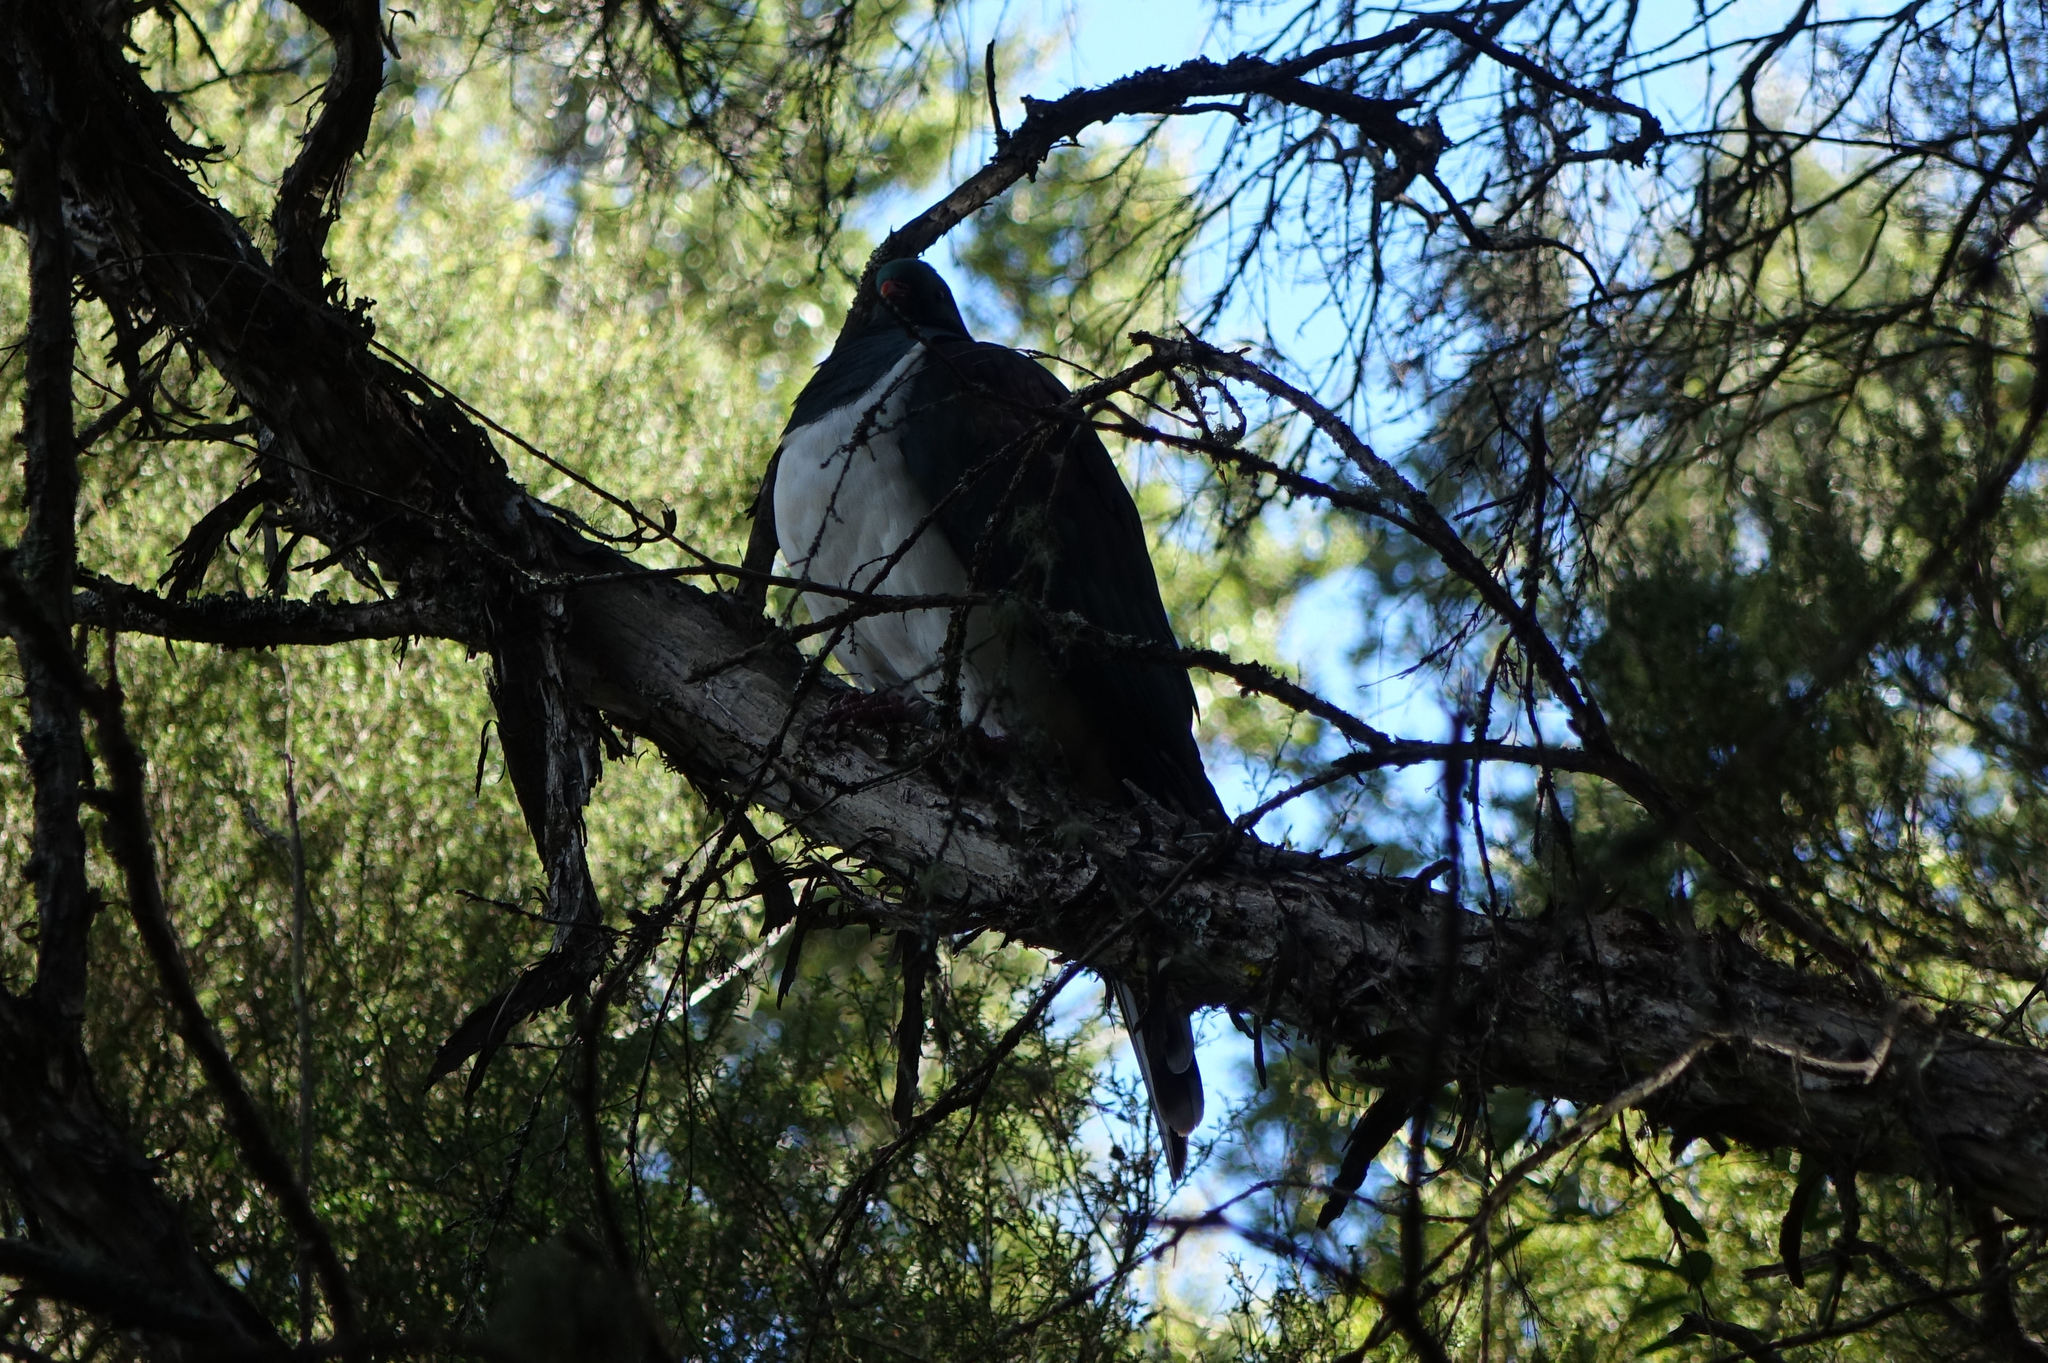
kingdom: Animalia
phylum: Chordata
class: Aves
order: Columbiformes
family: Columbidae
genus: Hemiphaga
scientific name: Hemiphaga novaeseelandiae
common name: New zealand pigeon
